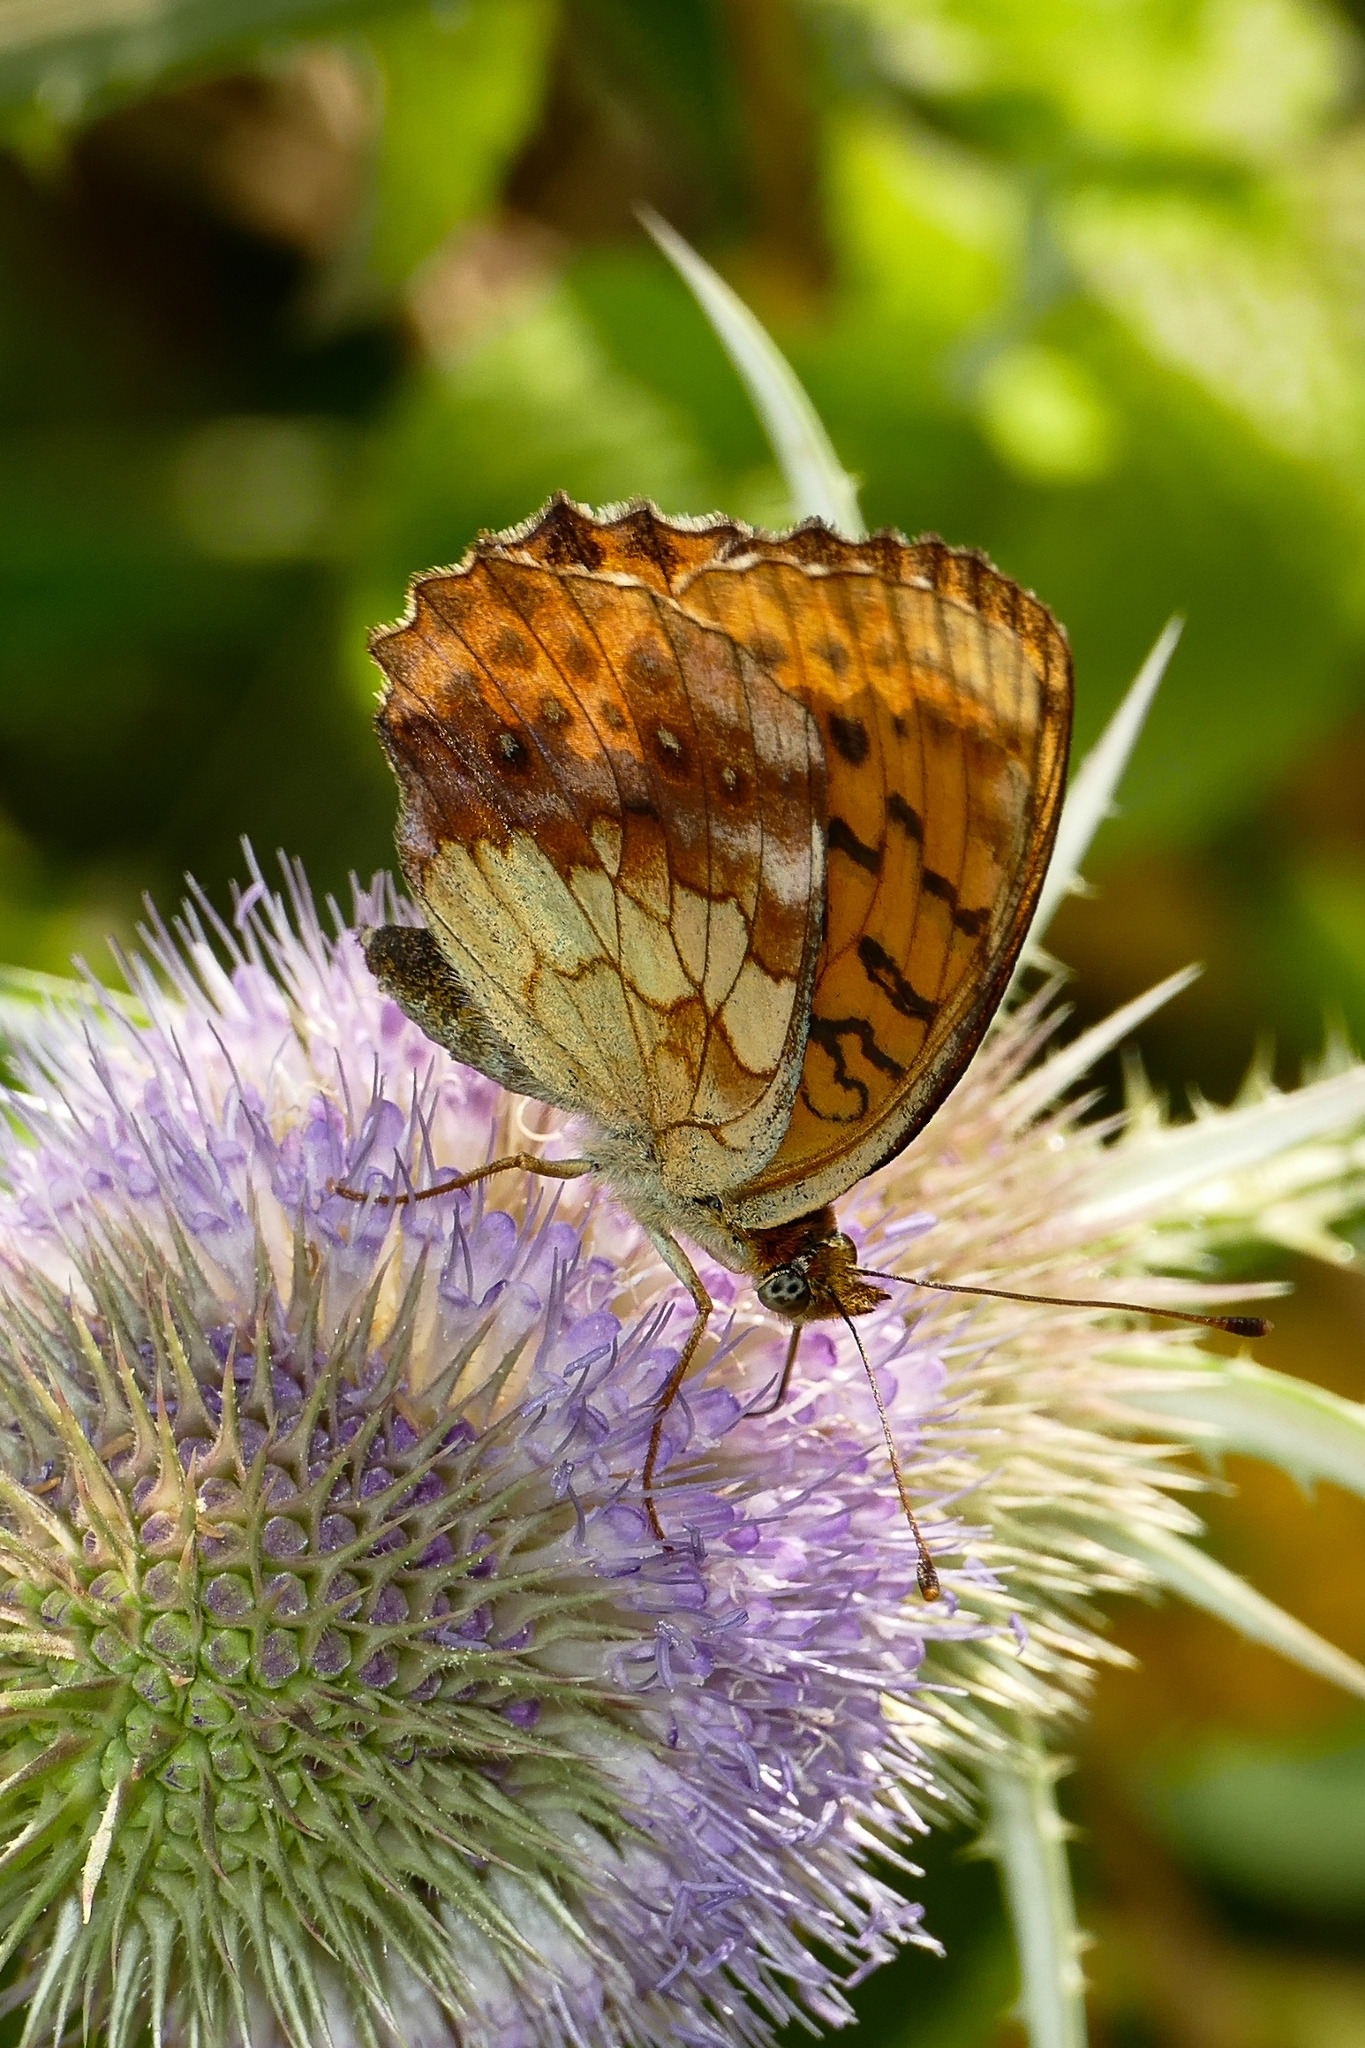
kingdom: Animalia
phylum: Arthropoda
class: Insecta
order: Lepidoptera
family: Nymphalidae
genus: Brenthis
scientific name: Brenthis daphne
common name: Marbled fritillary
